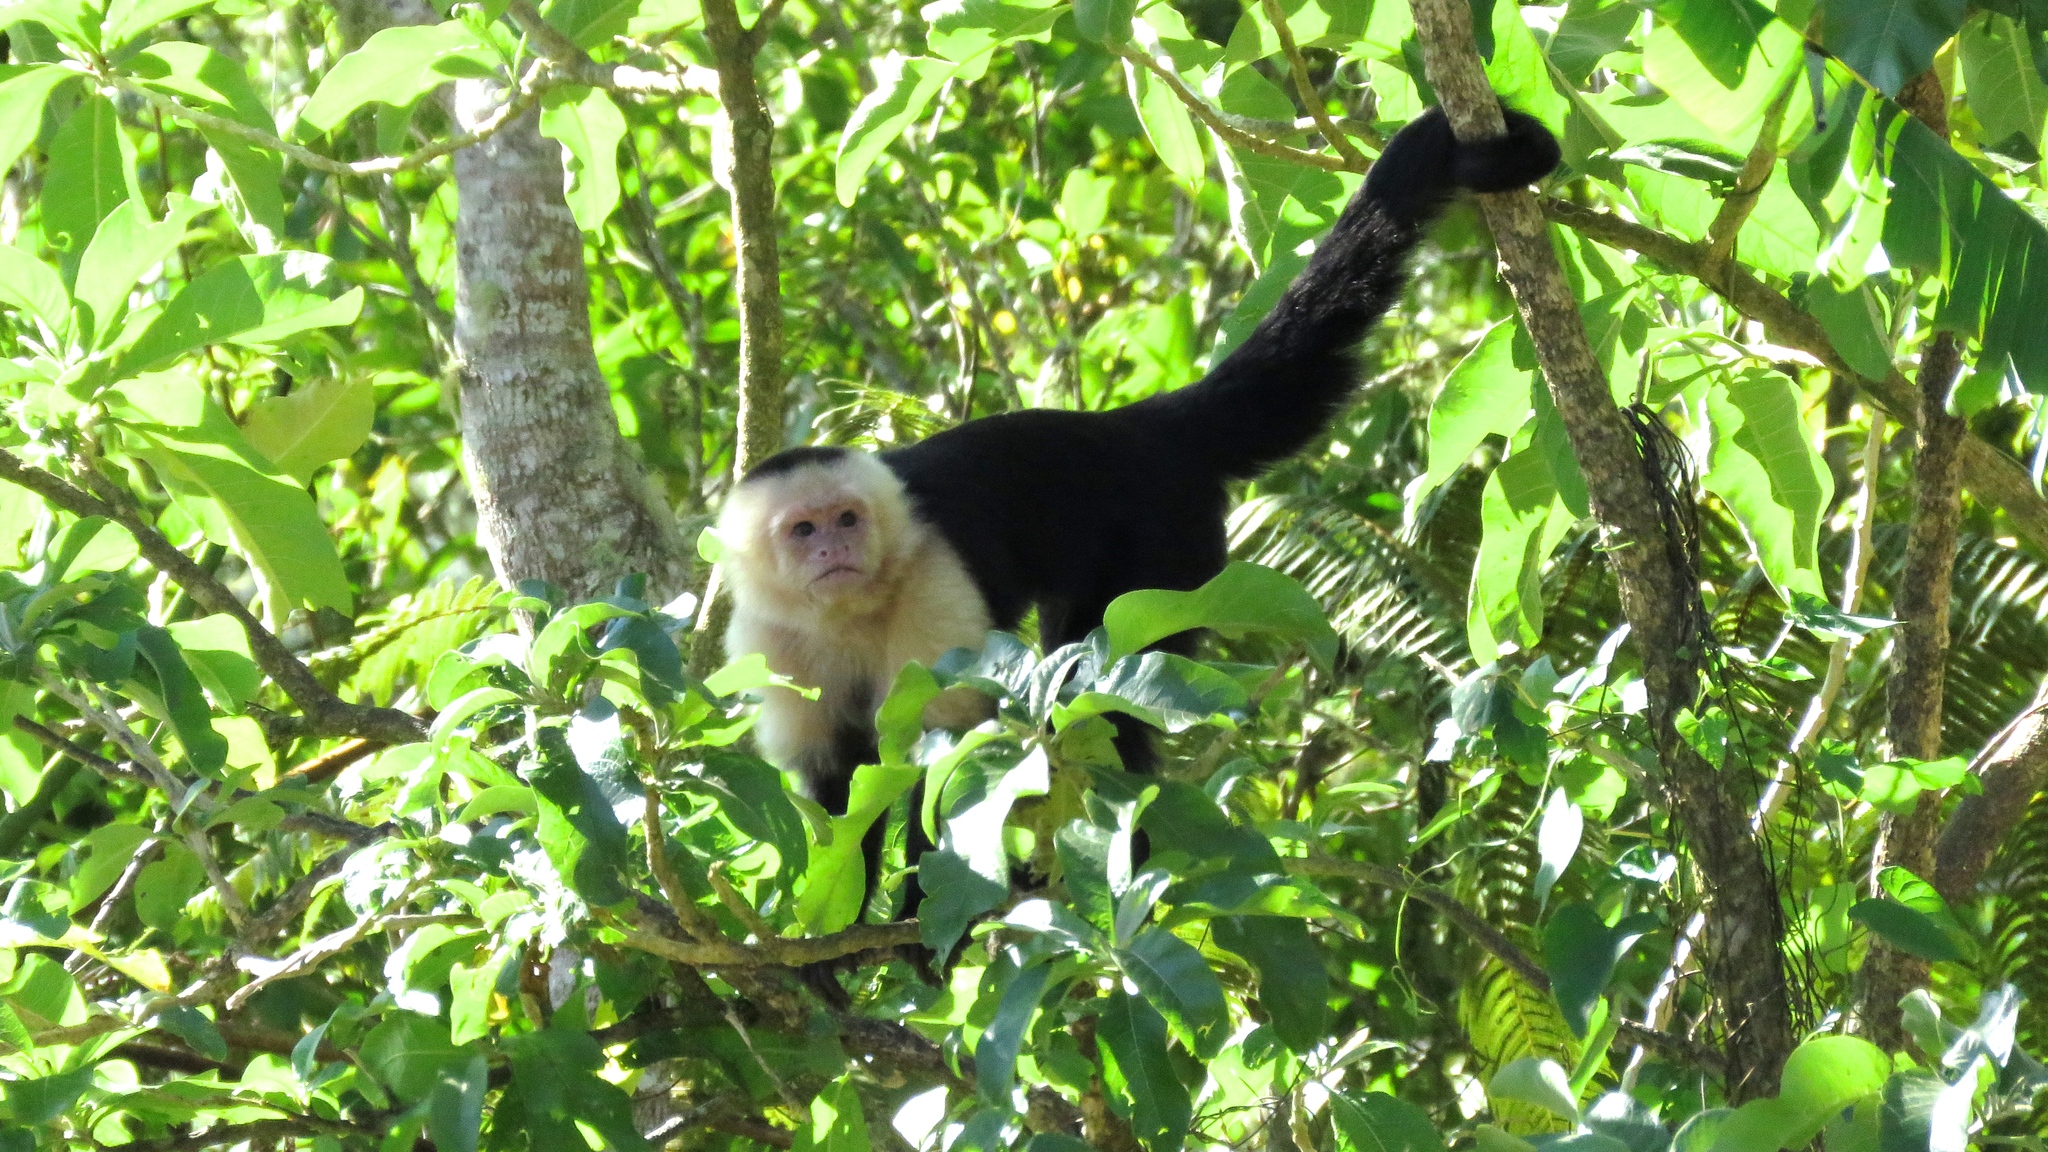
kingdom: Animalia
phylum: Chordata
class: Mammalia
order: Primates
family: Cebidae
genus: Cebus
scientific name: Cebus imitator
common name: Panamanian white-faced capuchin
